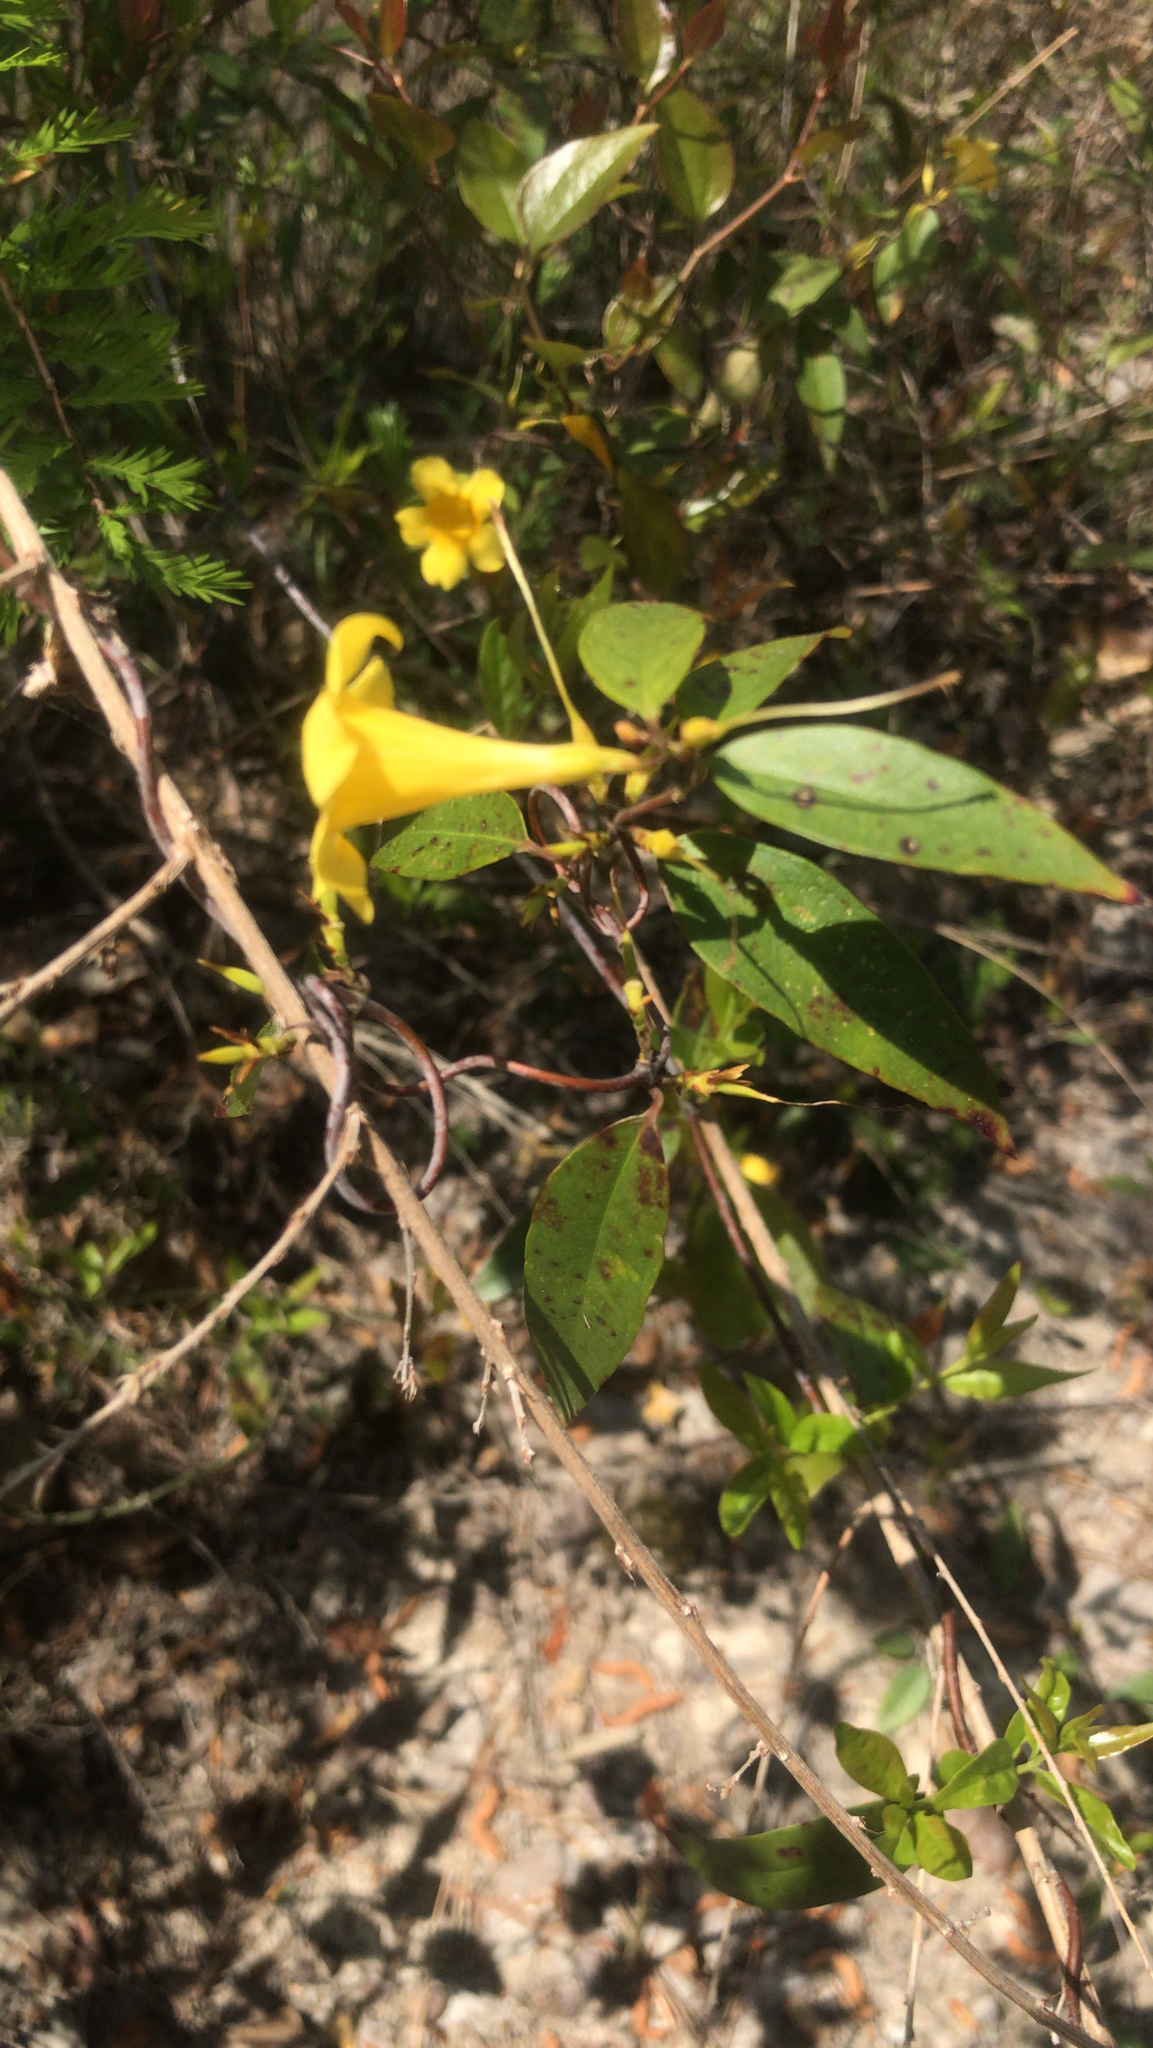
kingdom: Plantae
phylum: Tracheophyta
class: Magnoliopsida
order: Gentianales
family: Gelsemiaceae
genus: Gelsemium
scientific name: Gelsemium sempervirens
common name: Carolina-jasmine
